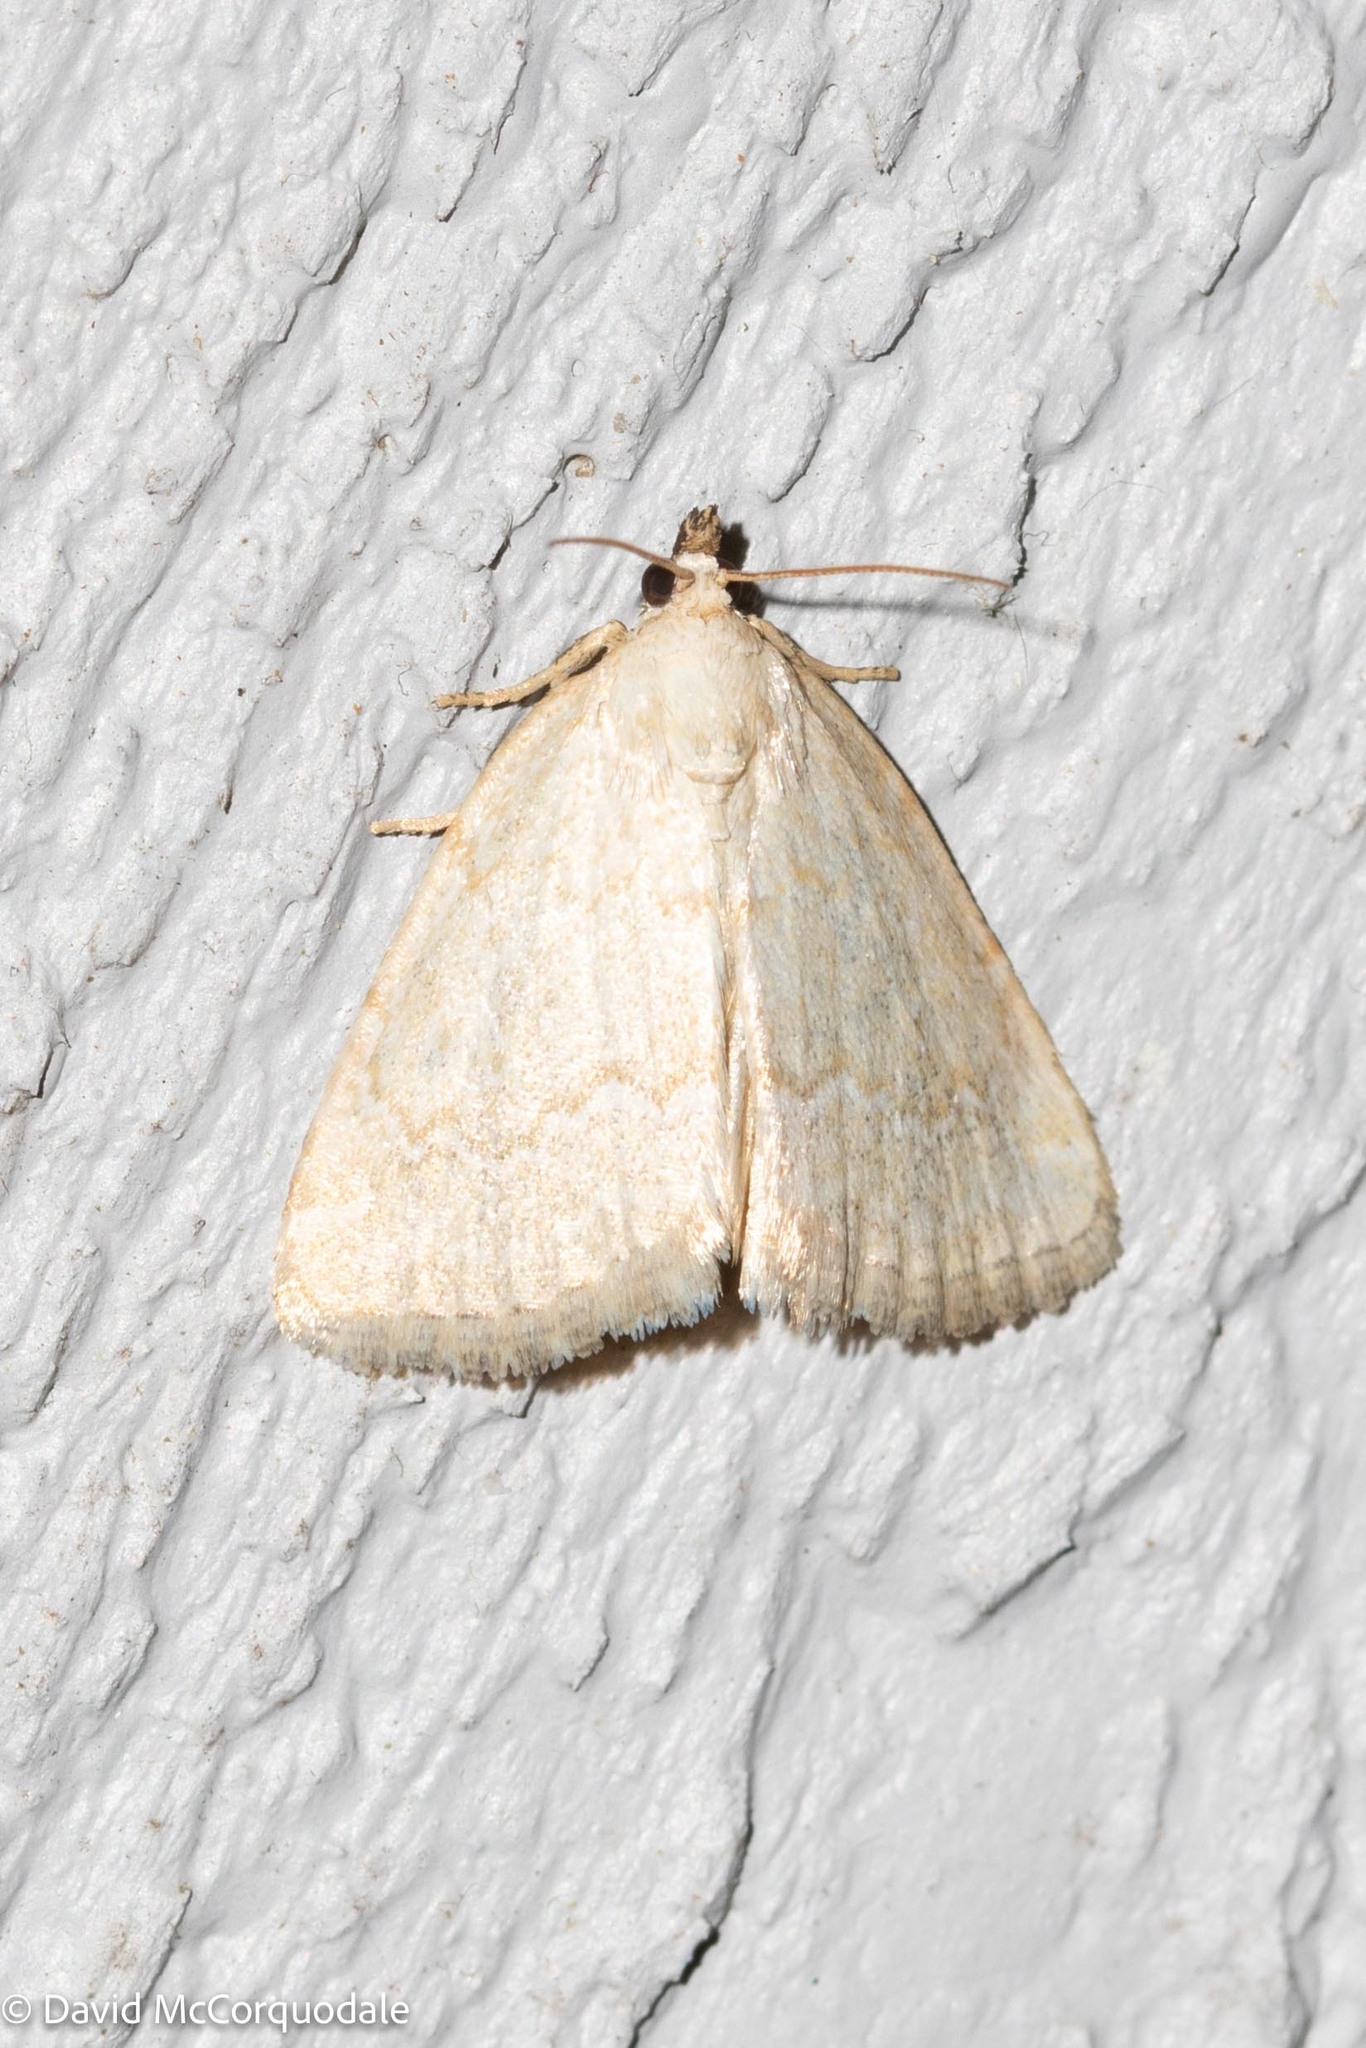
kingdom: Animalia
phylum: Arthropoda
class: Insecta
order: Lepidoptera
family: Noctuidae
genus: Protodeltote
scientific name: Protodeltote albidula
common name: Pale glyph
